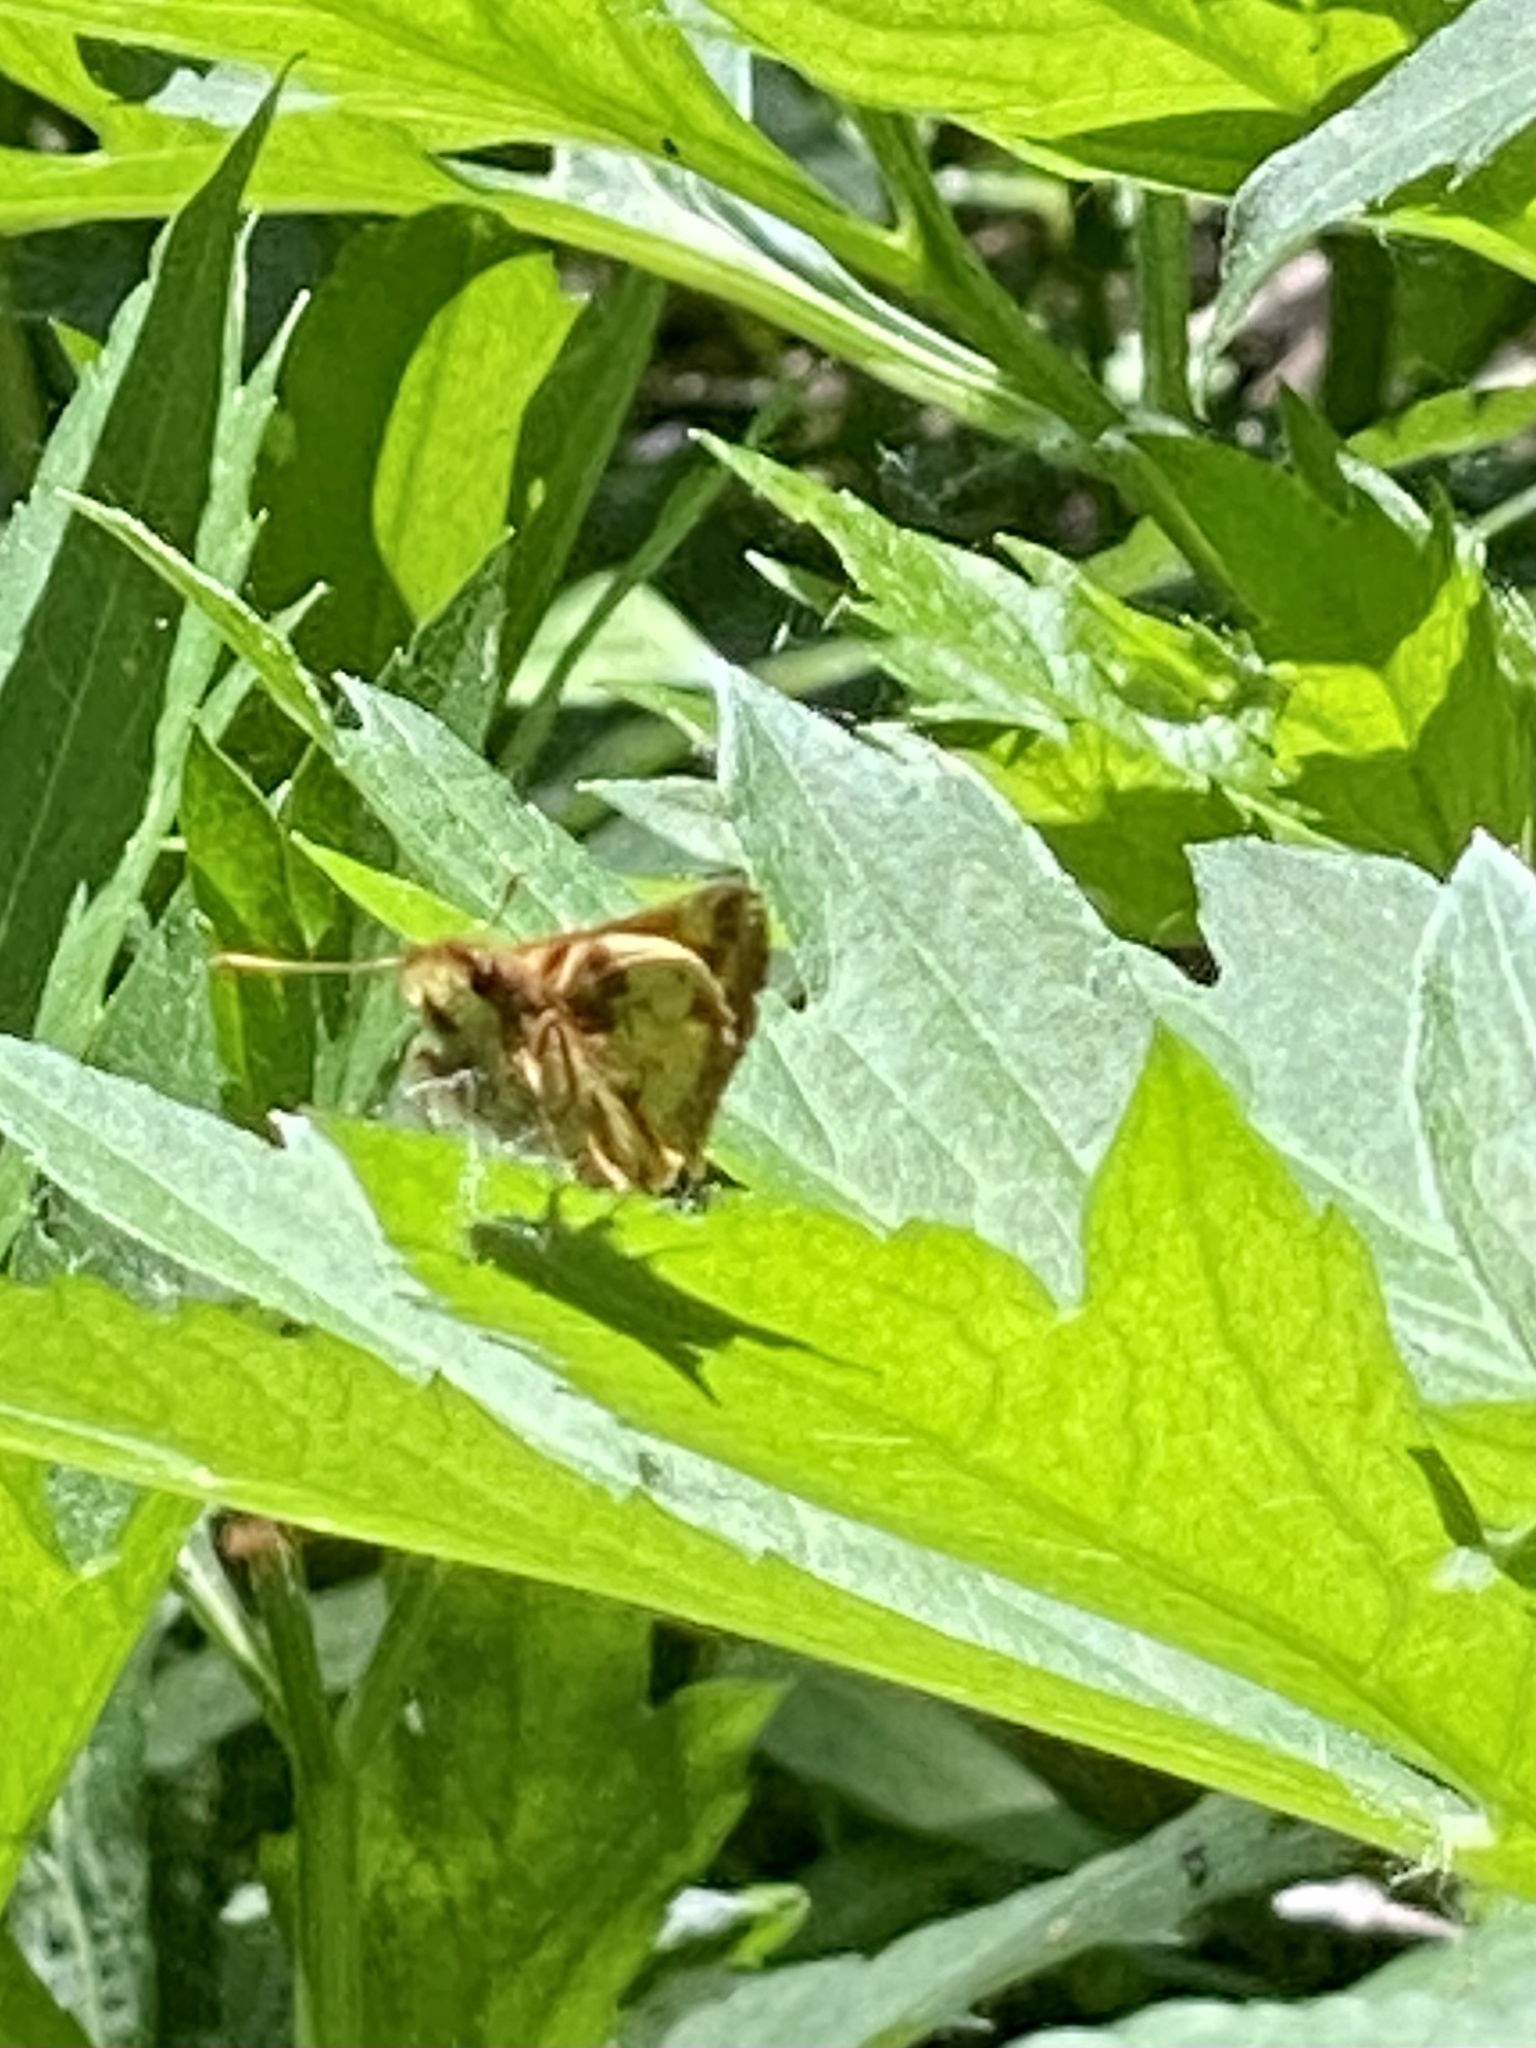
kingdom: Animalia
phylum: Arthropoda
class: Insecta
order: Lepidoptera
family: Hesperiidae
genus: Lon
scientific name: Lon zabulon
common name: Zabulon skipper
